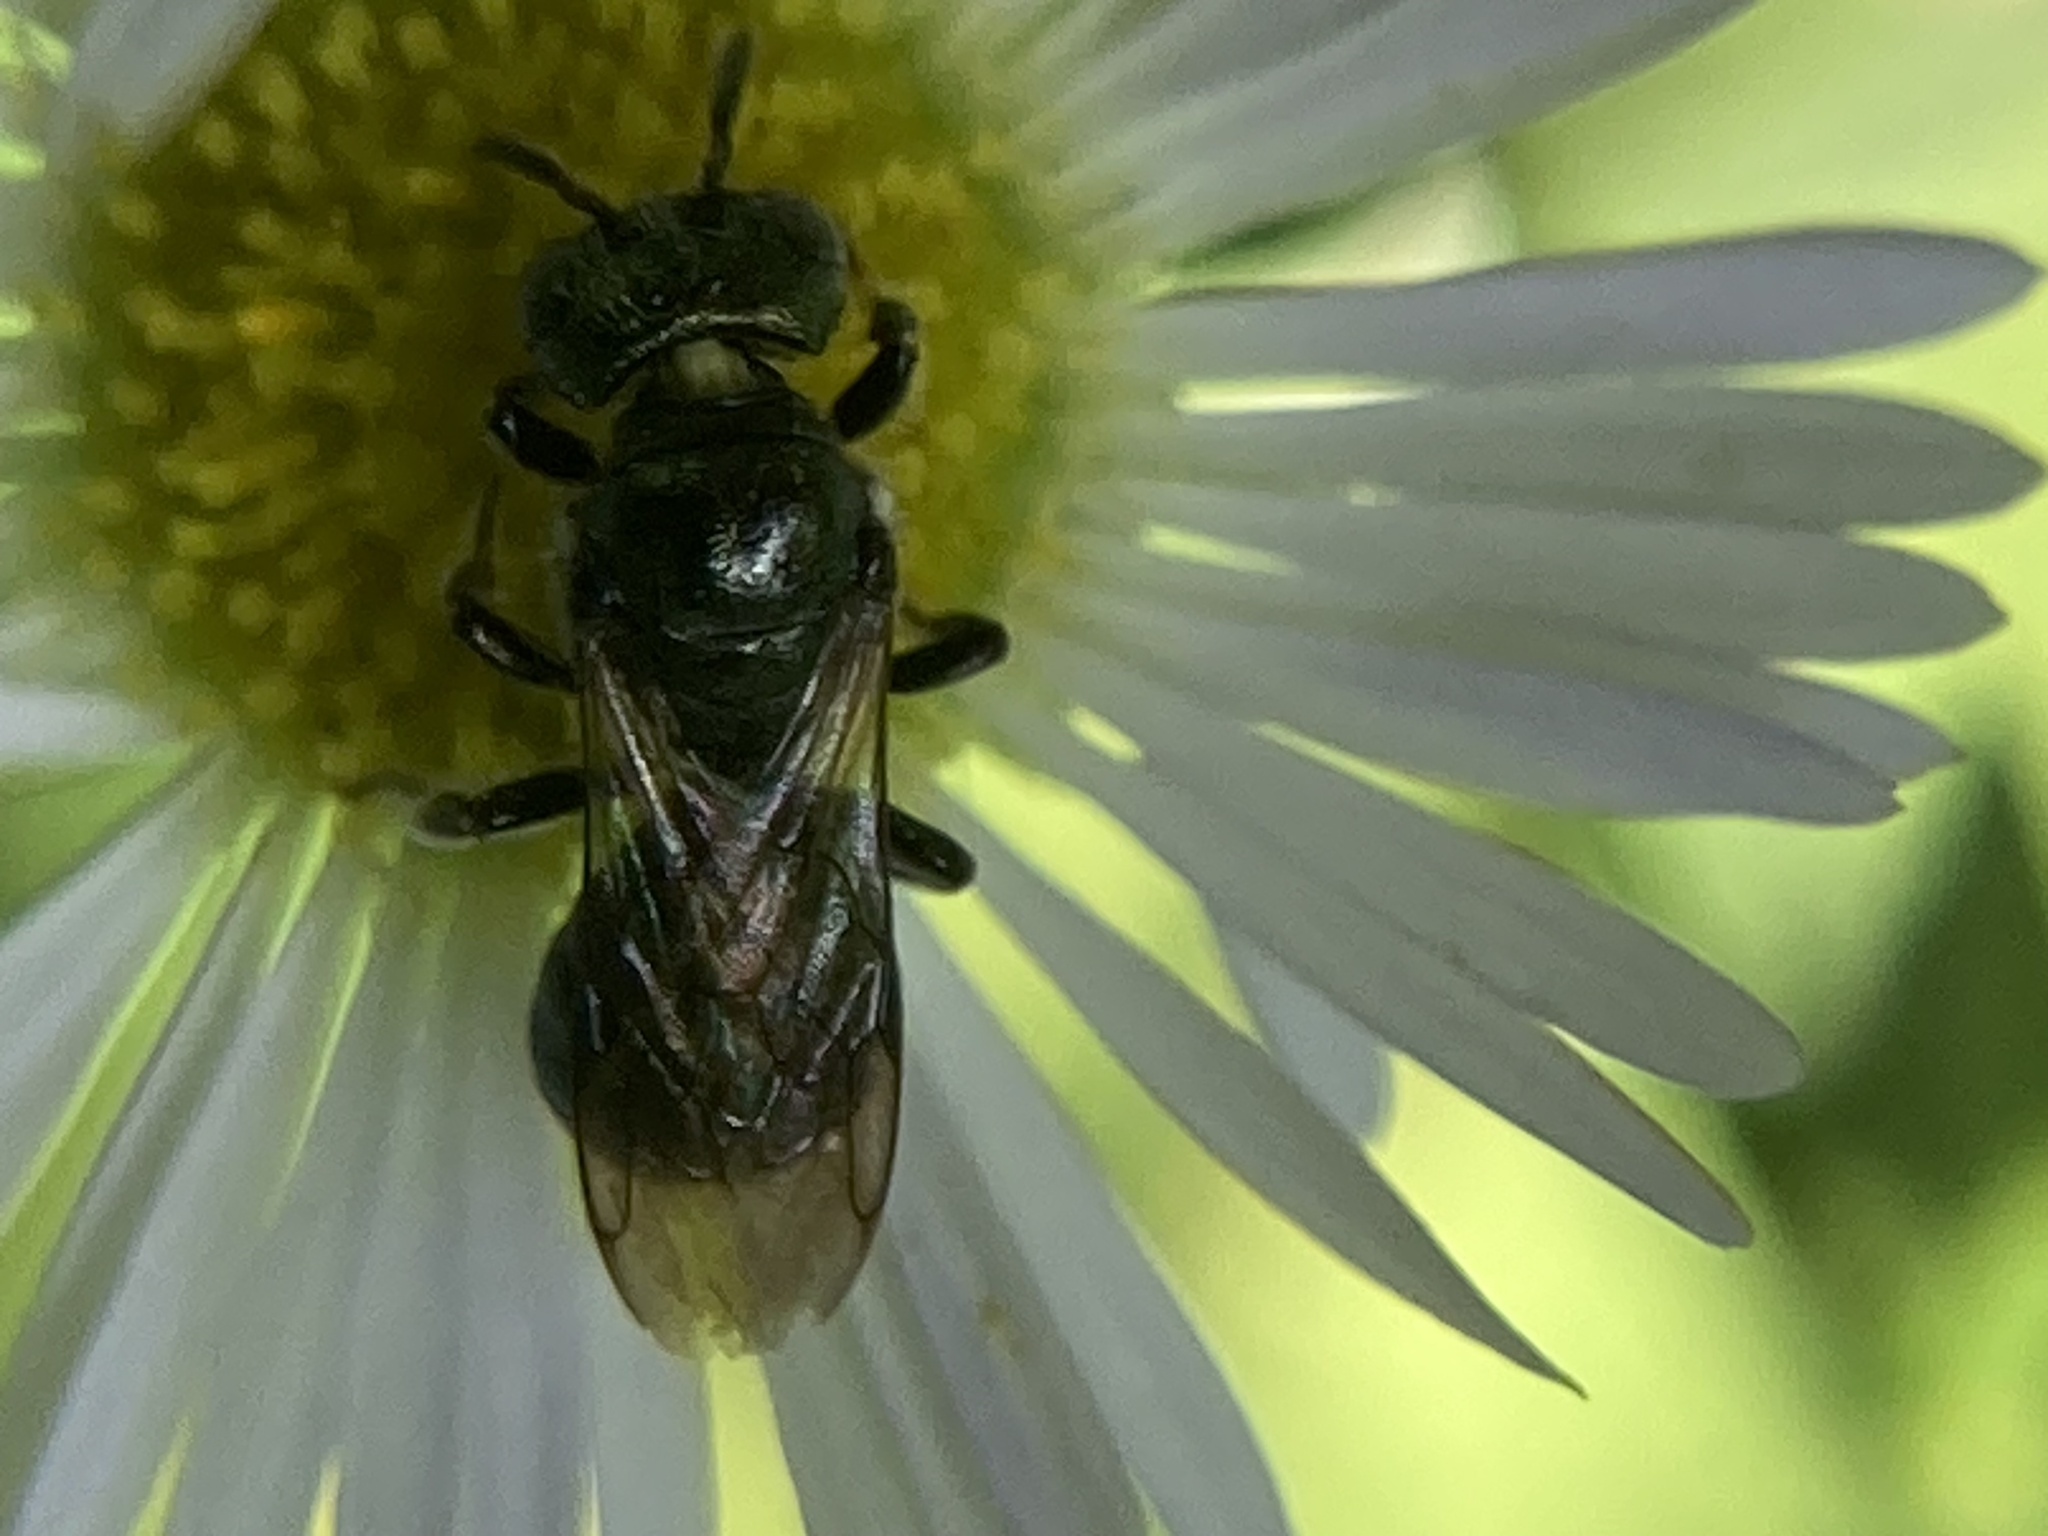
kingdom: Animalia
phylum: Arthropoda
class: Insecta
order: Hymenoptera
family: Apidae
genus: Zadontomerus
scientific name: Zadontomerus
